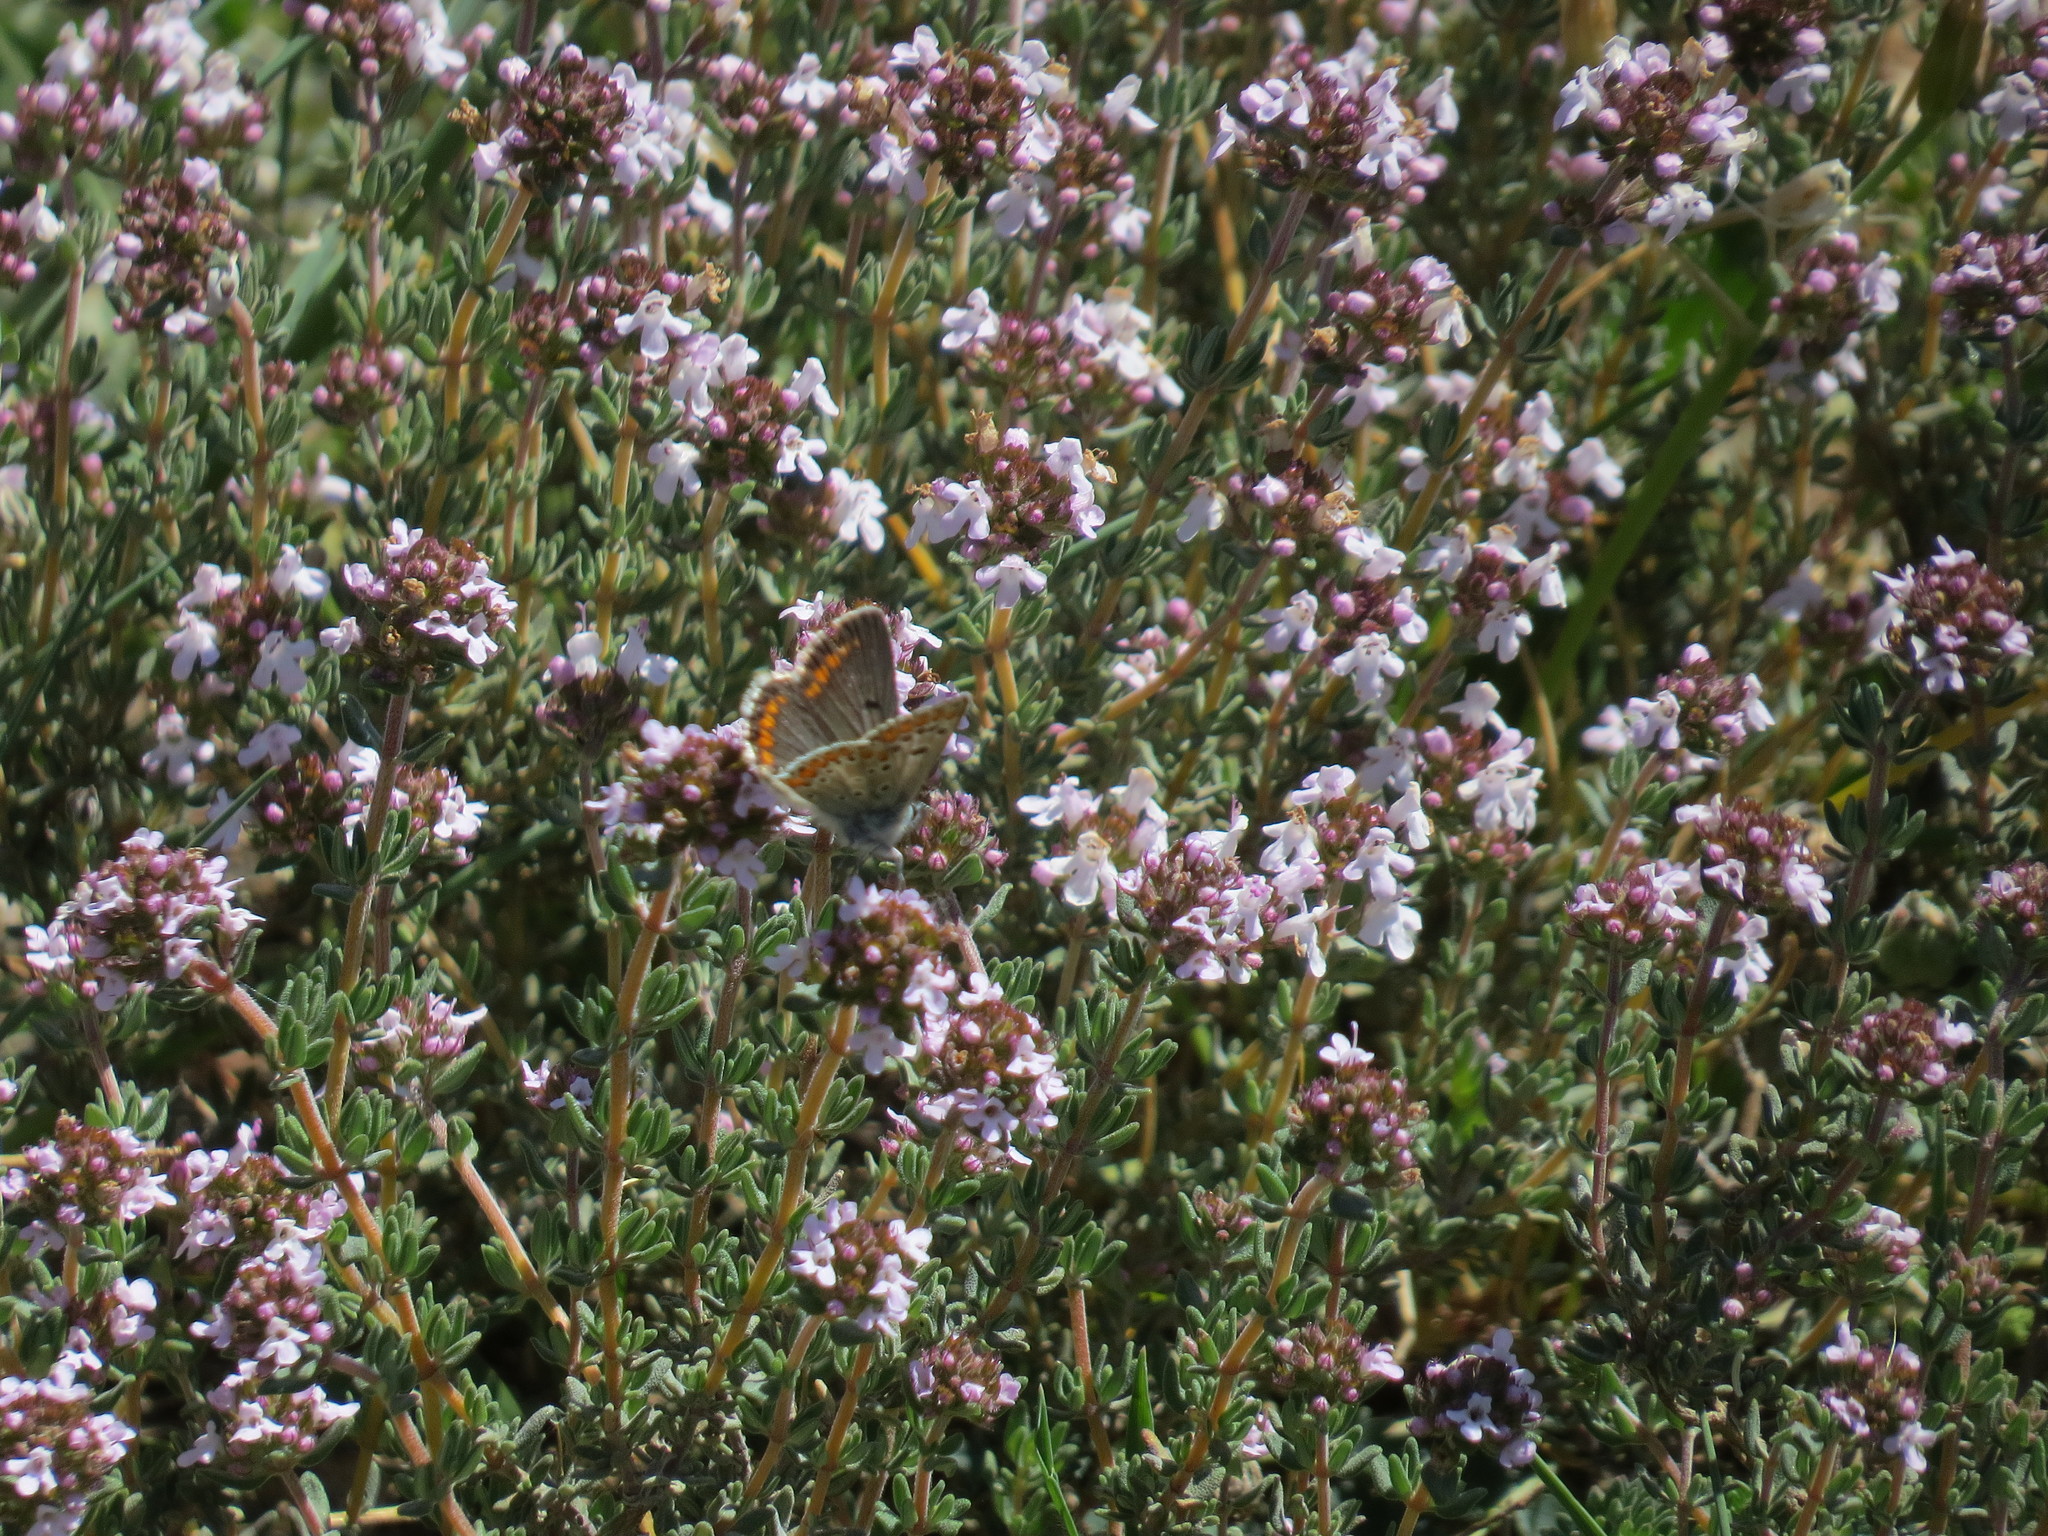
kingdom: Animalia
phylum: Arthropoda
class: Insecta
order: Lepidoptera
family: Lycaenidae
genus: Aricia
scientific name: Aricia agestis
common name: Brown argus
